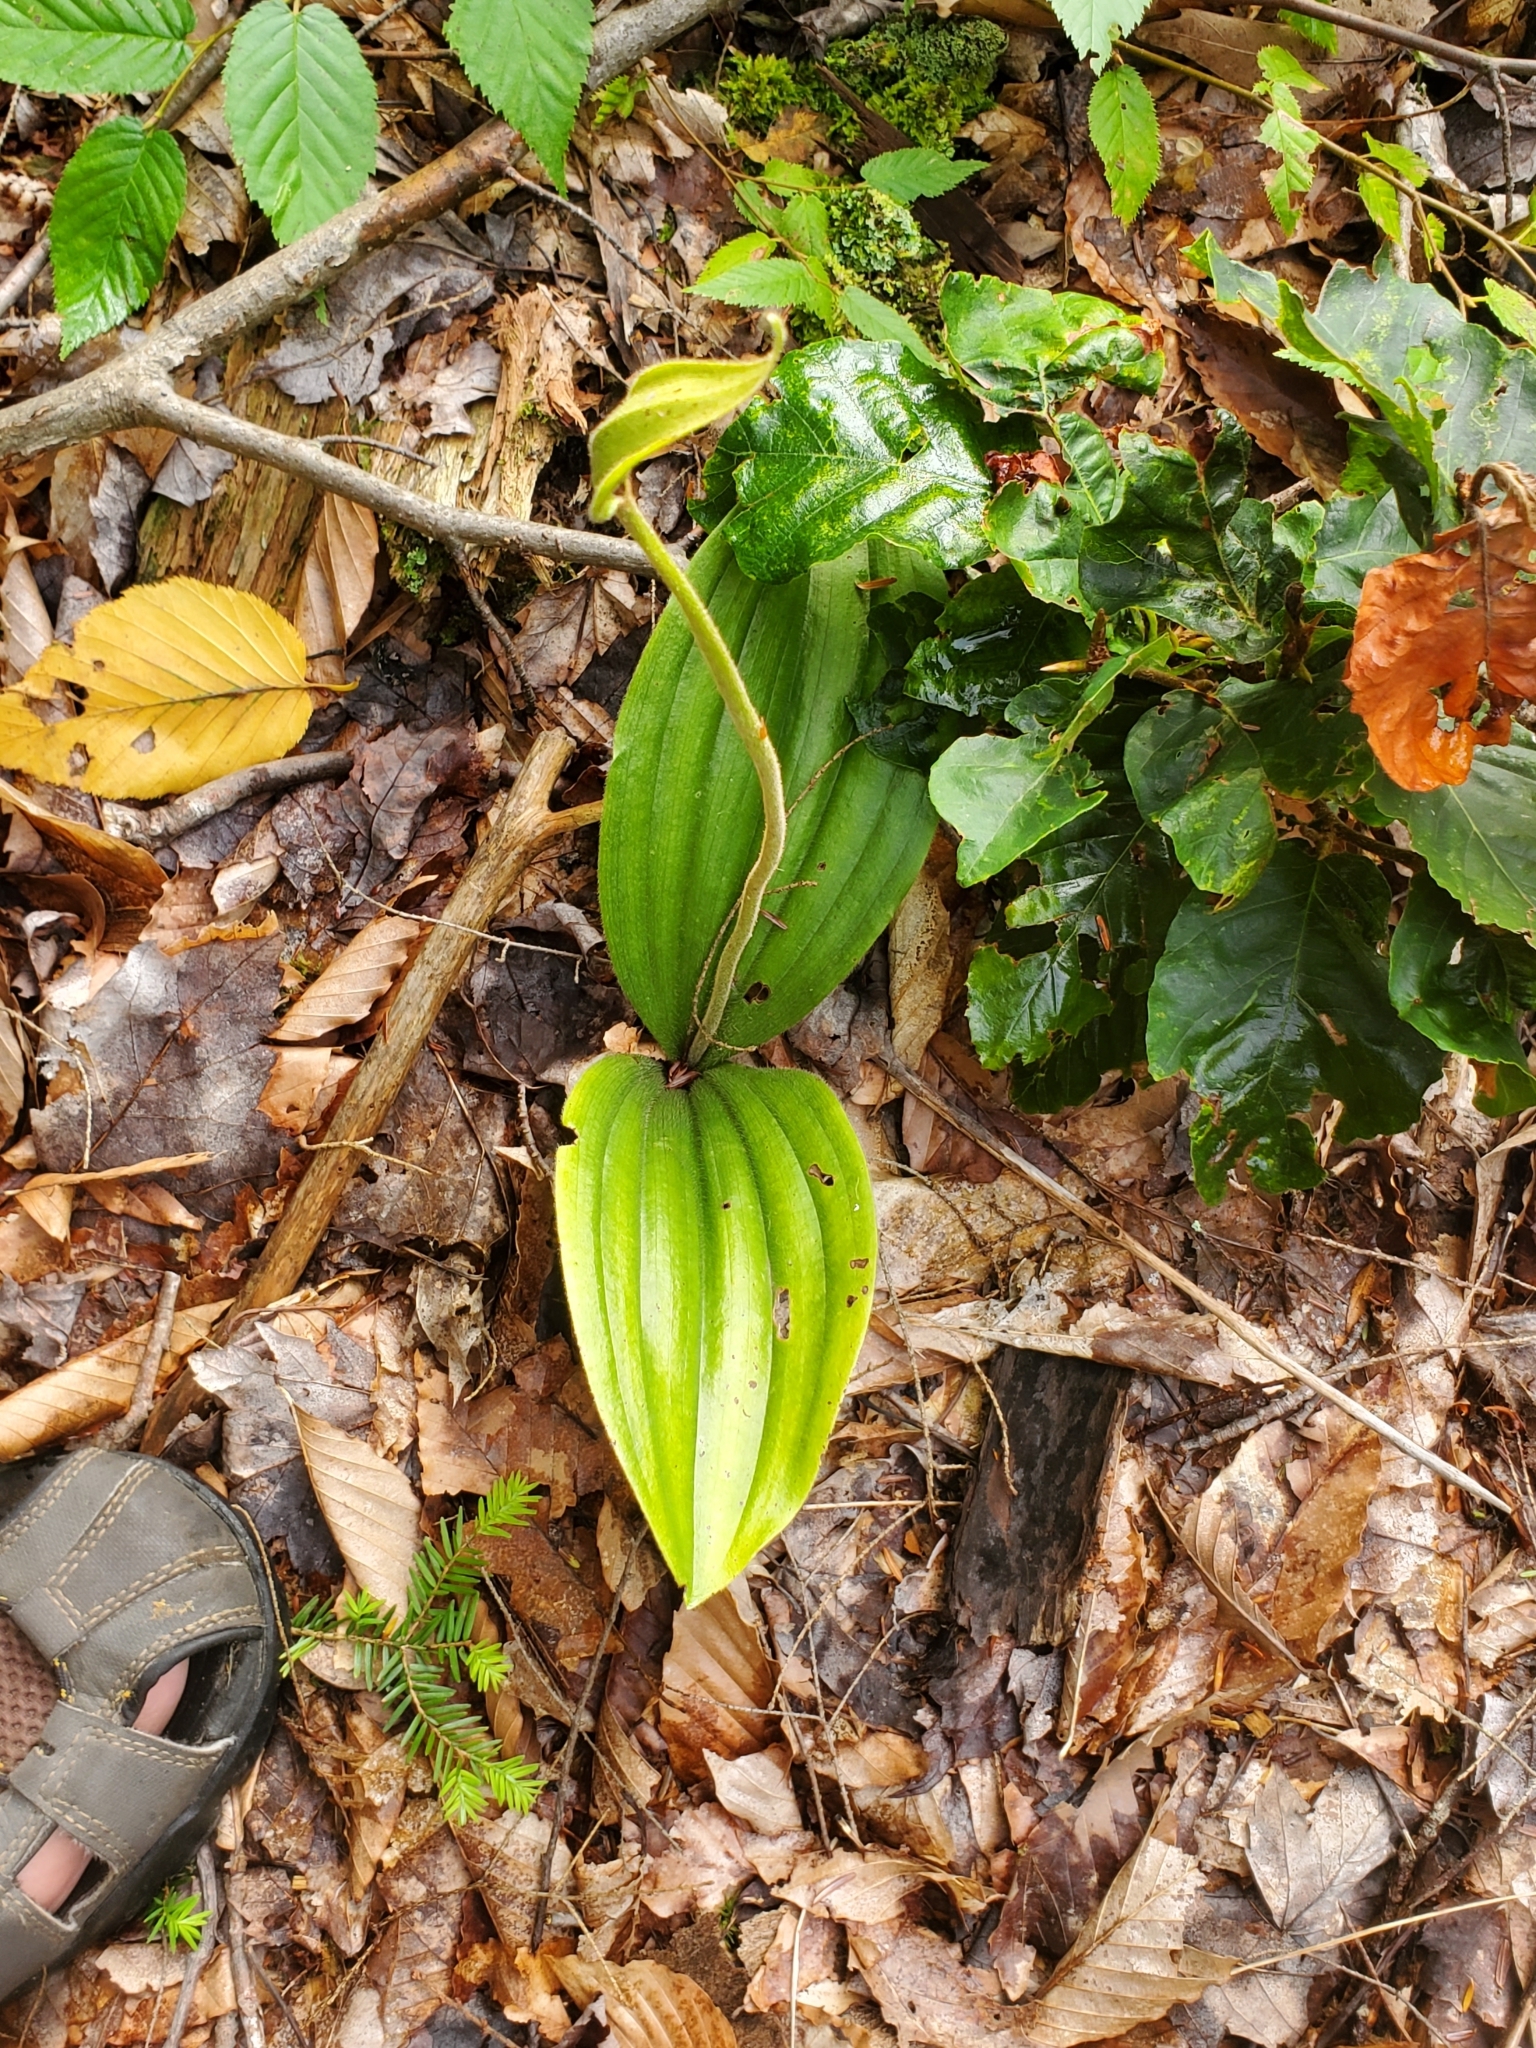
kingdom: Plantae
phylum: Tracheophyta
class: Liliopsida
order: Asparagales
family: Orchidaceae
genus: Cypripedium
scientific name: Cypripedium acaule
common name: Pink lady's-slipper
